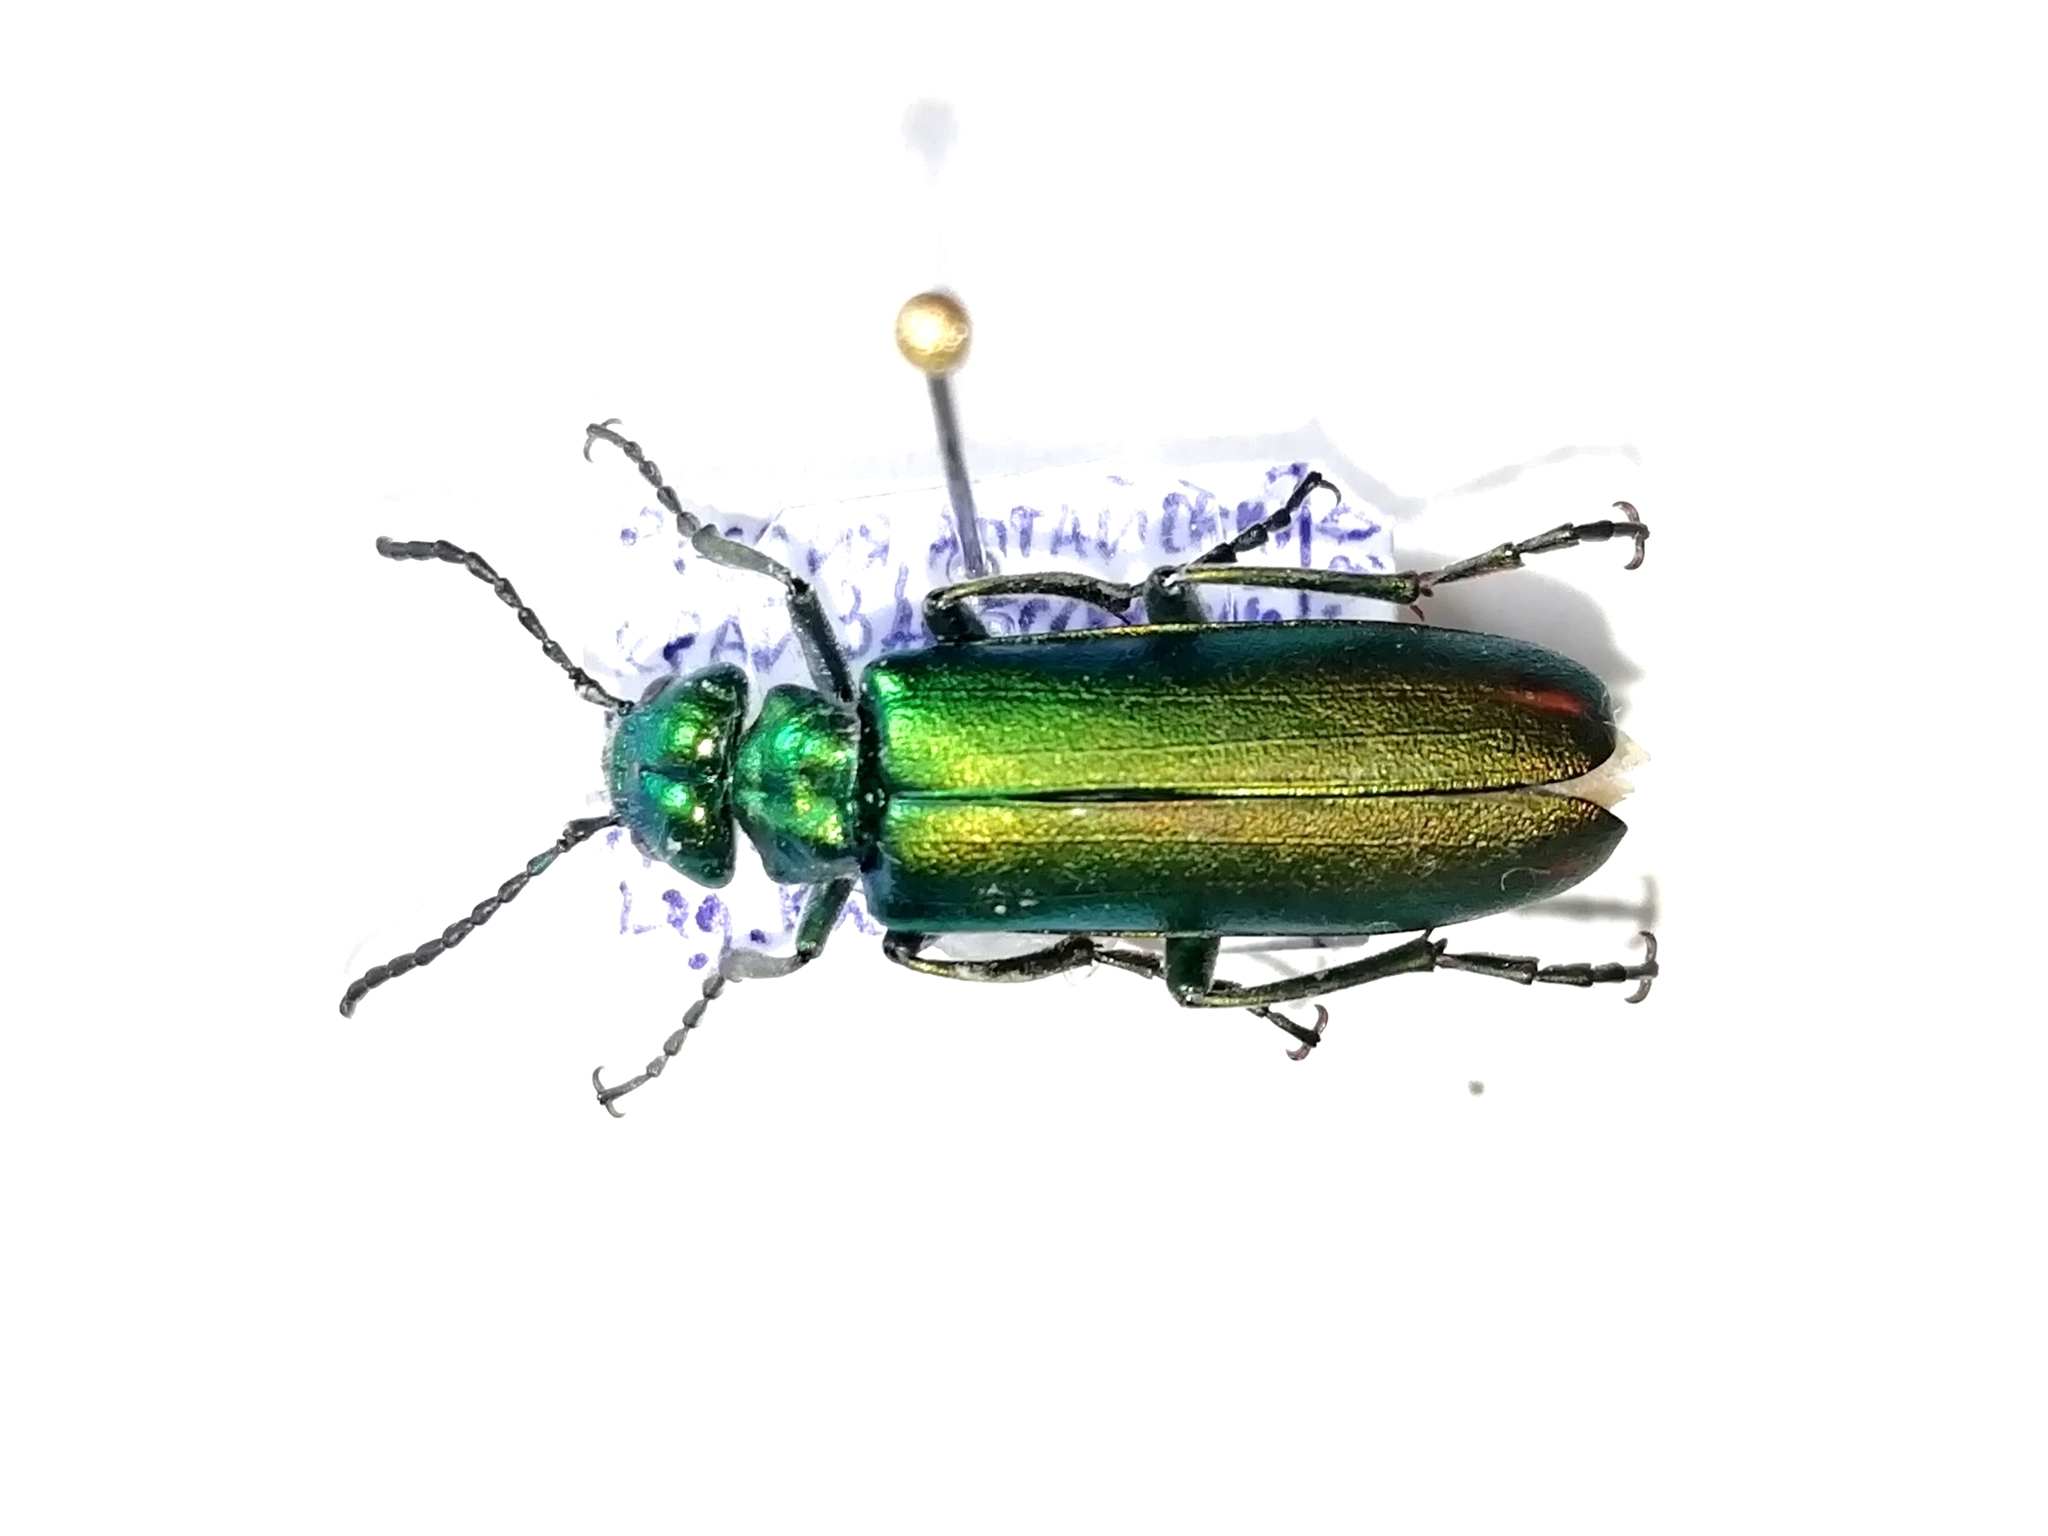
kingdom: Animalia
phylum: Arthropoda
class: Insecta
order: Coleoptera
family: Meloidae
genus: Lytta
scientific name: Lytta vesicatoria
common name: Spanish fly
